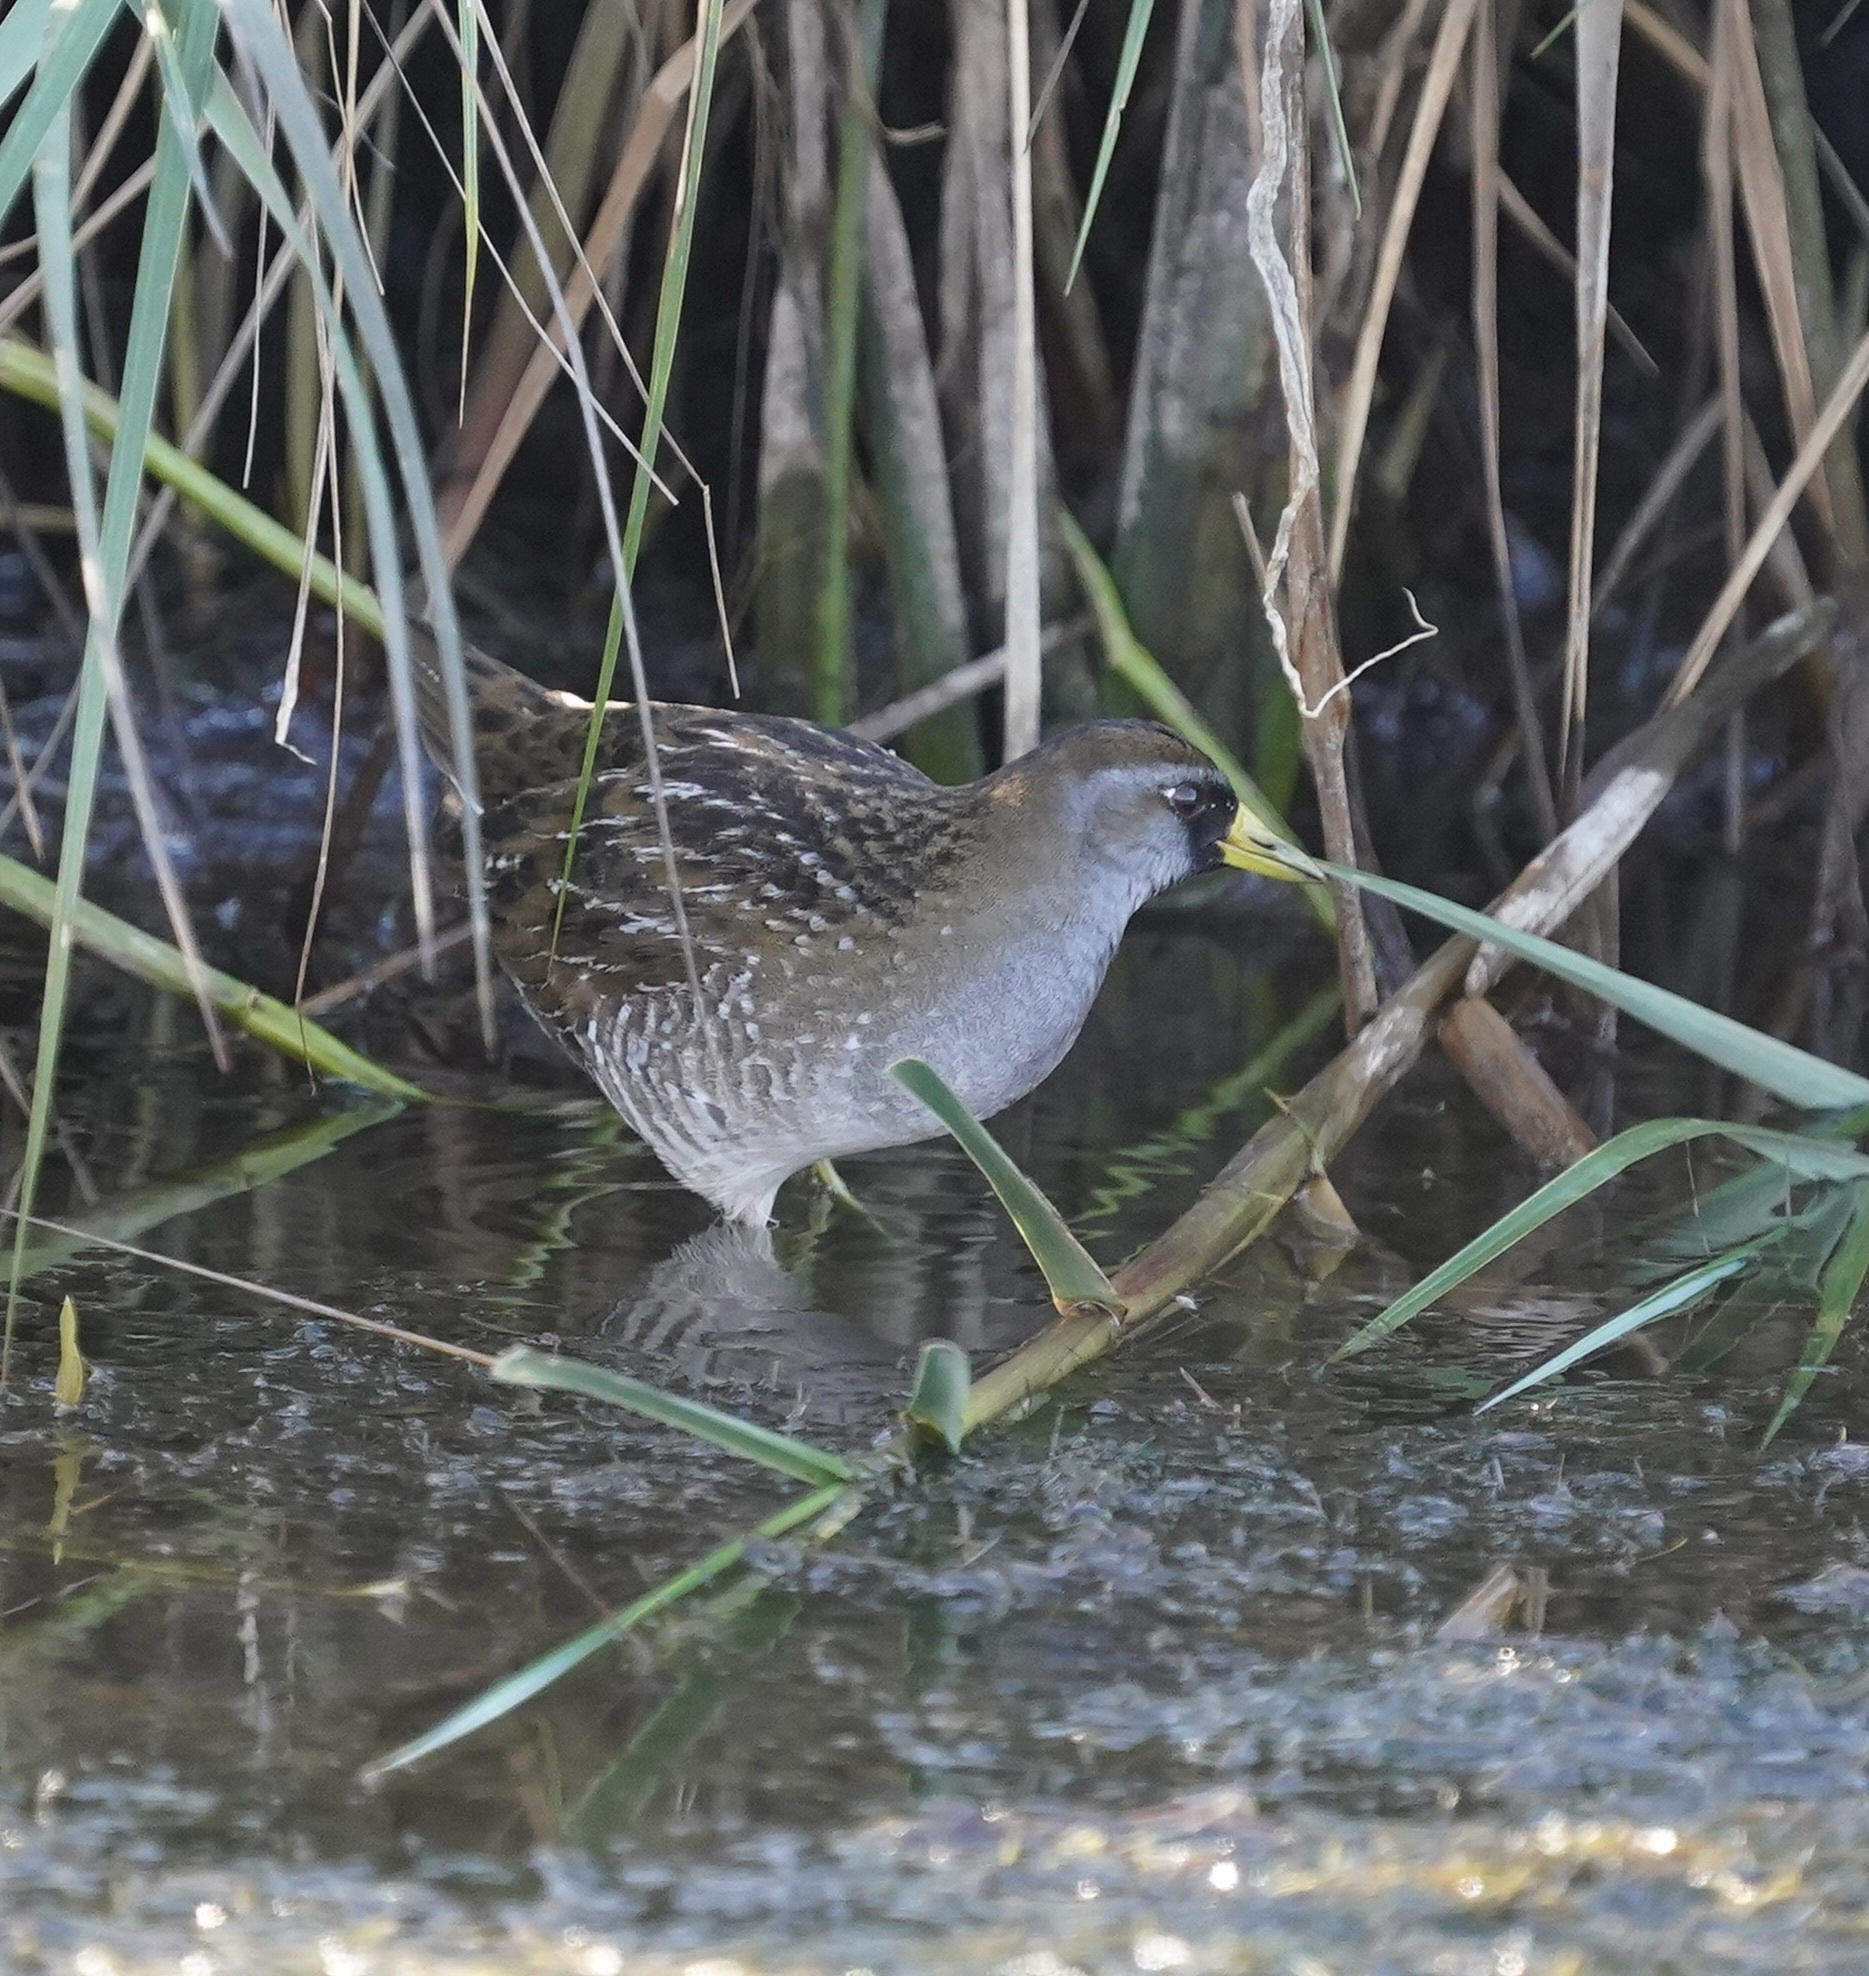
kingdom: Animalia
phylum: Chordata
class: Aves
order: Gruiformes
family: Rallidae
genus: Porzana
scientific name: Porzana carolina
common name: Sora
